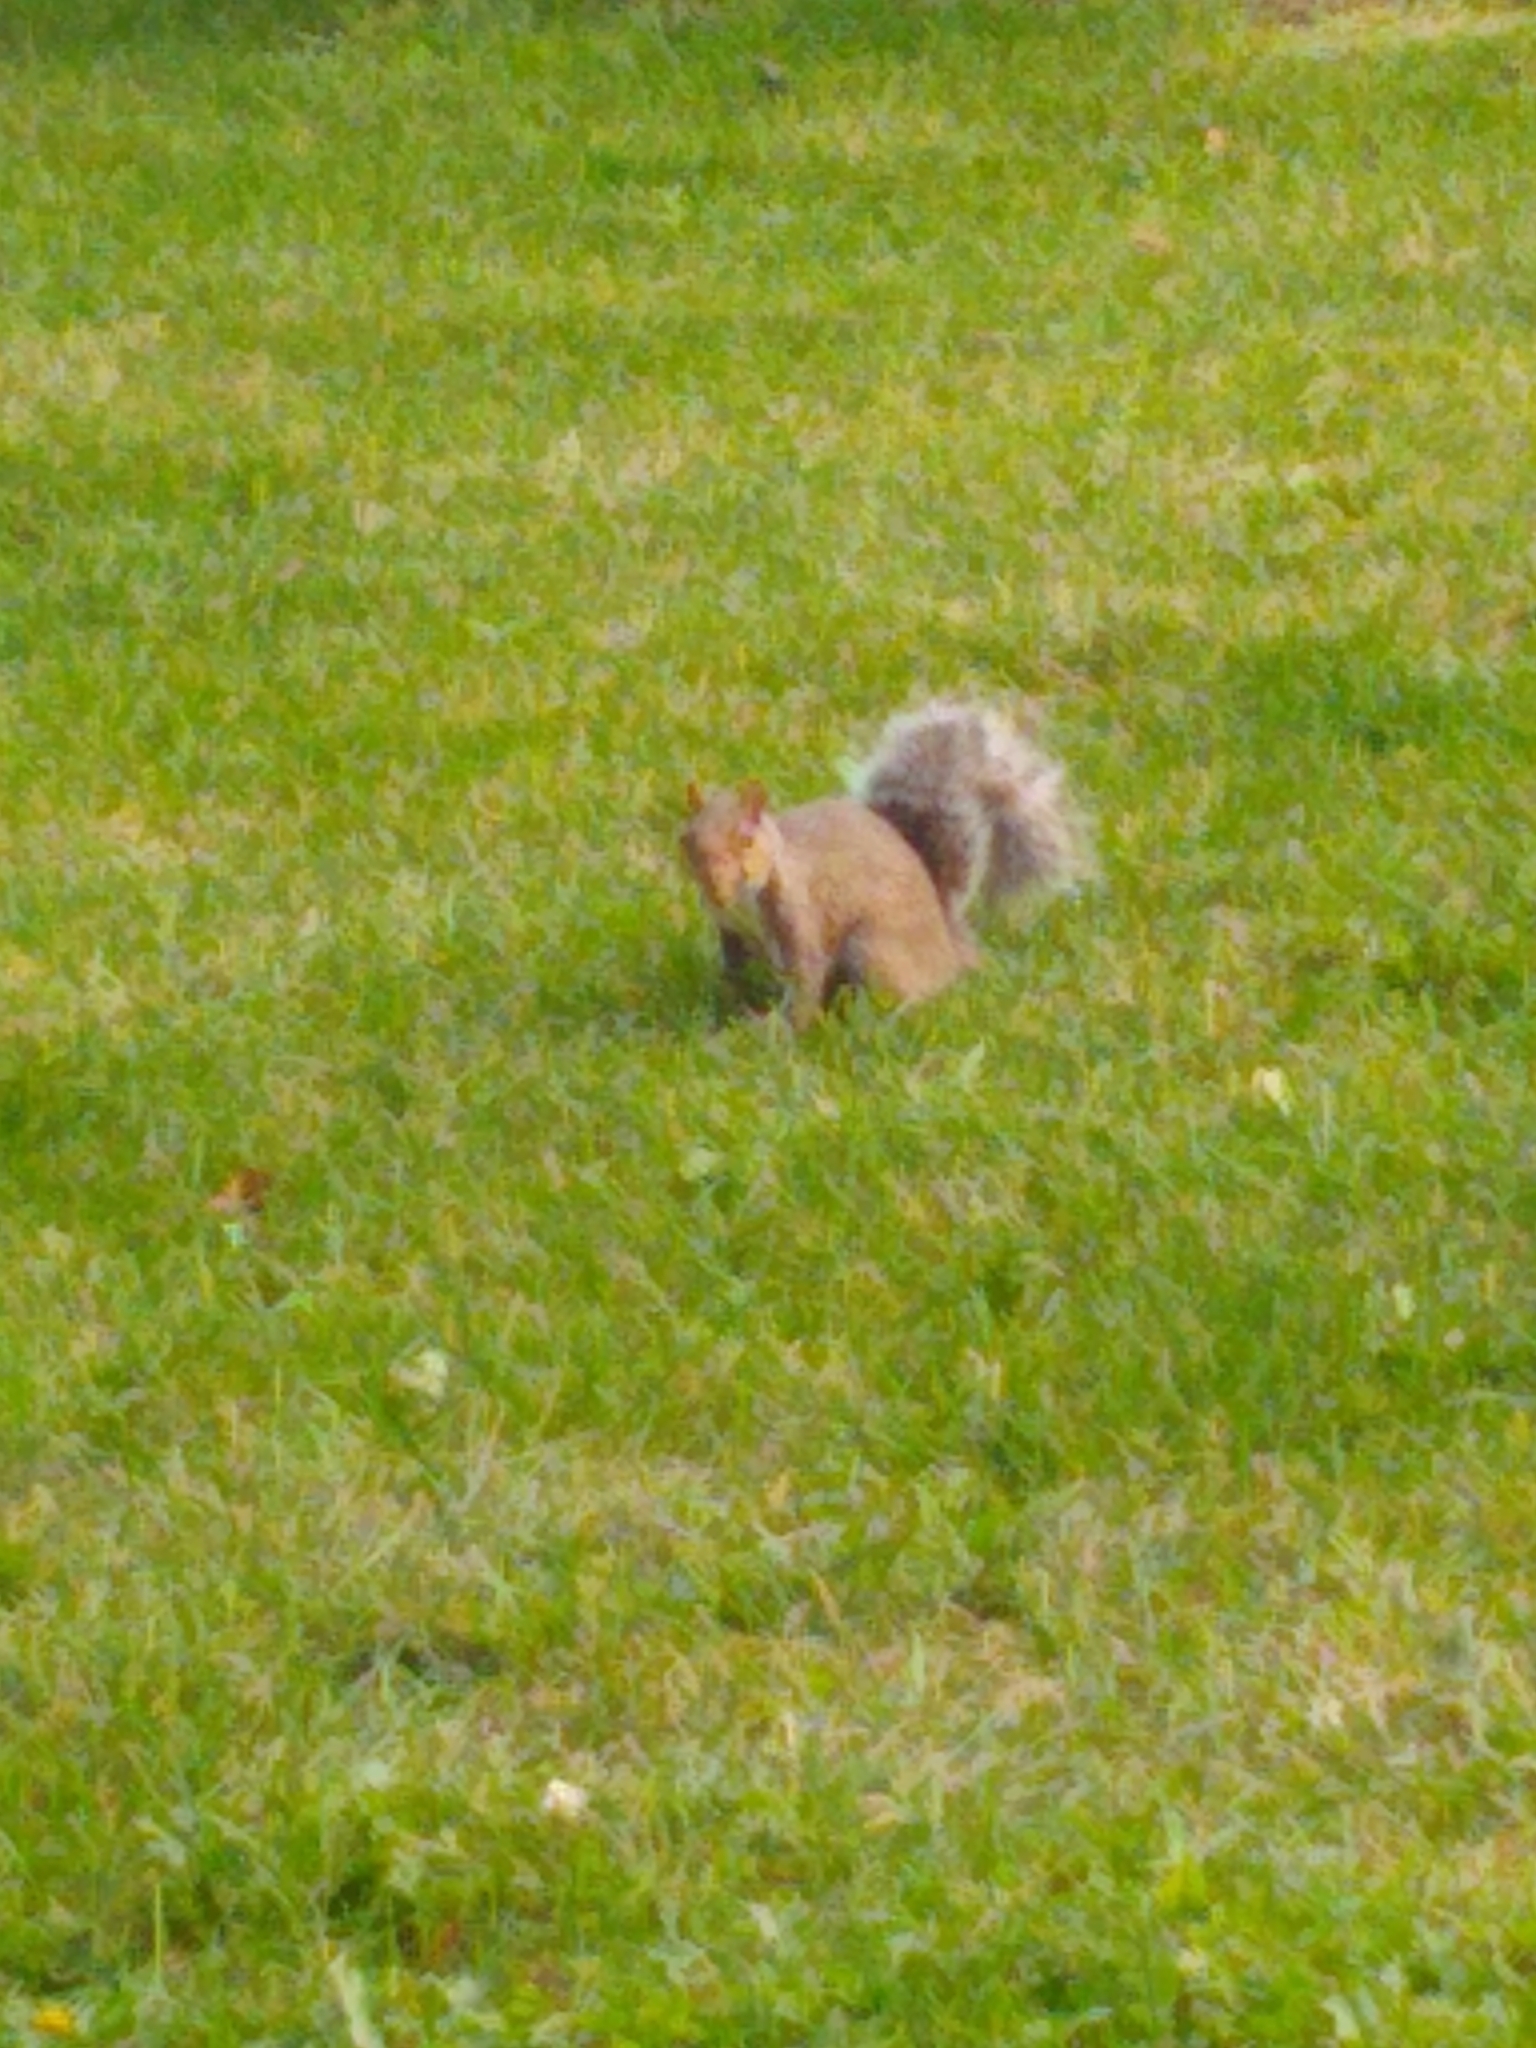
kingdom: Animalia
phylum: Chordata
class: Mammalia
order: Rodentia
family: Sciuridae
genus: Sciurus
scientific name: Sciurus carolinensis
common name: Eastern gray squirrel
